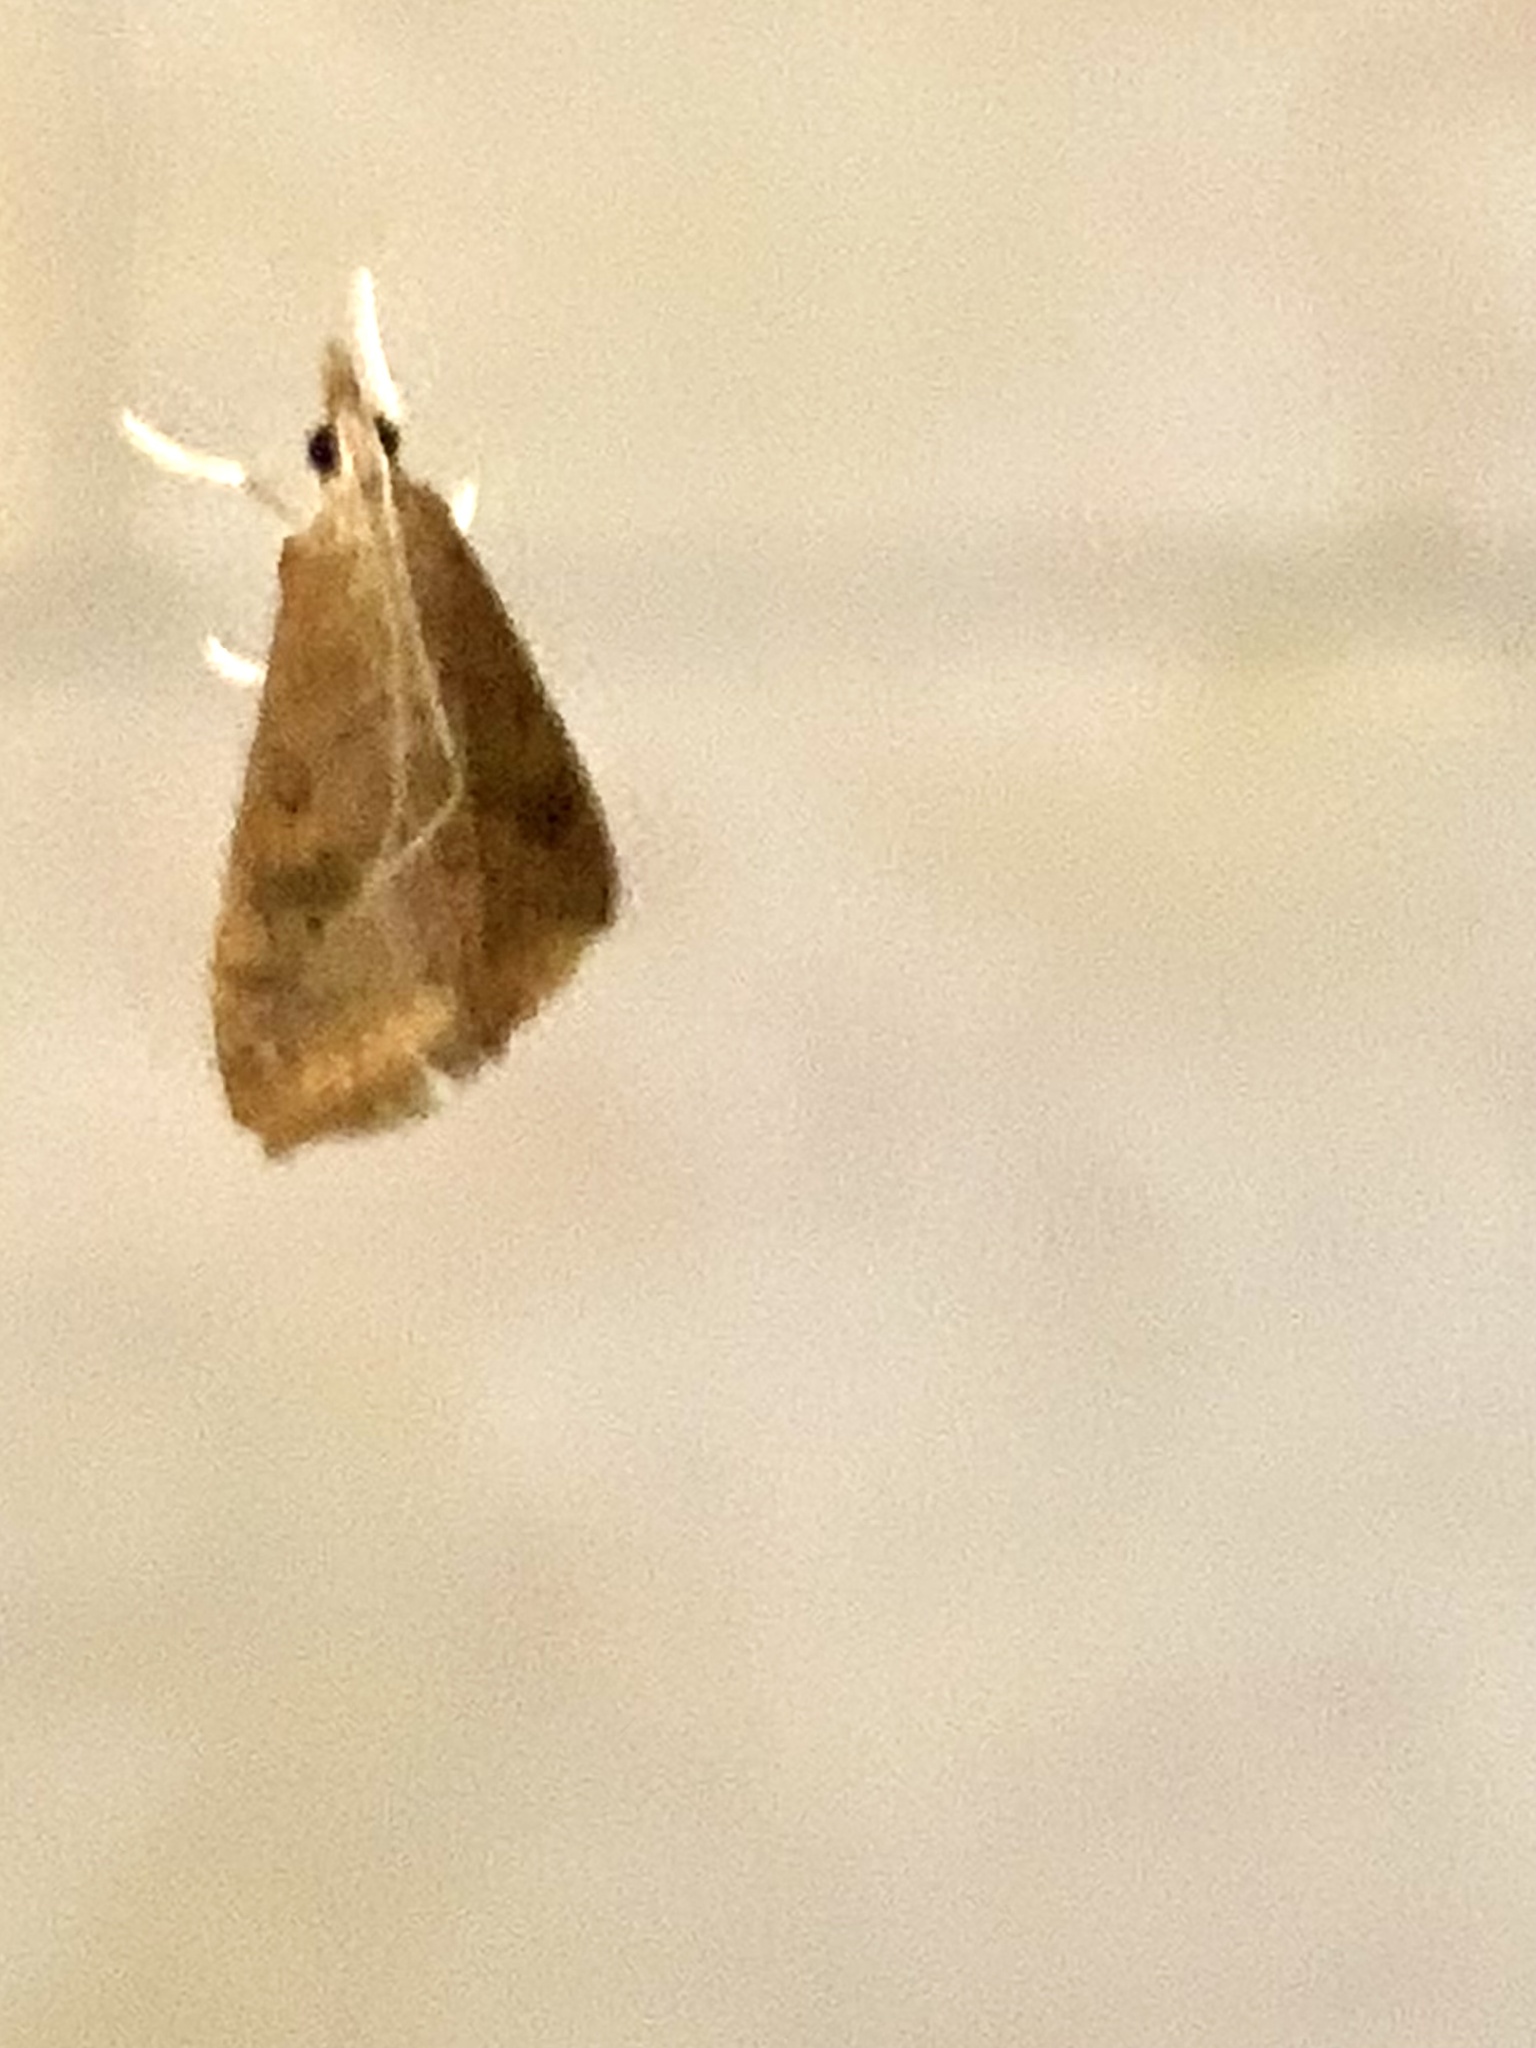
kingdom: Animalia
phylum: Arthropoda
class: Insecta
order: Lepidoptera
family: Crambidae
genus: Udea
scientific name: Udea ferrugalis
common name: Rusty dot
